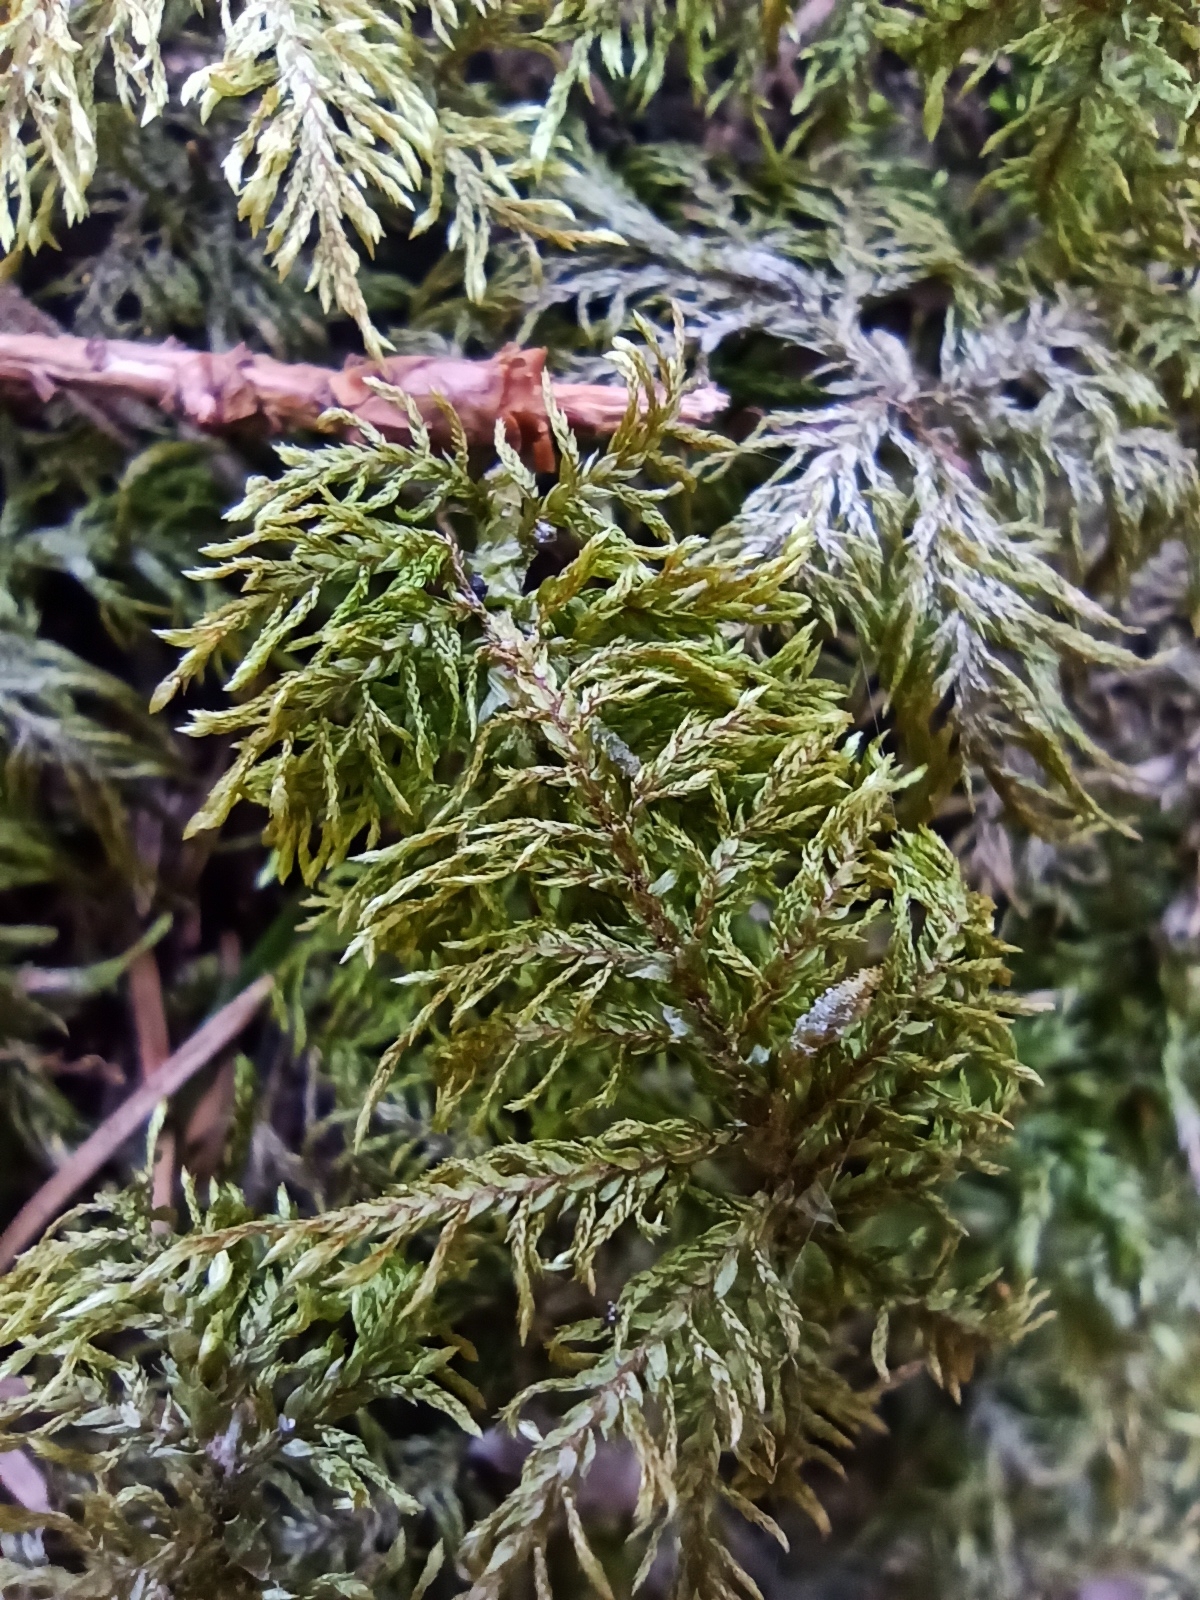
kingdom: Plantae
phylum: Bryophyta
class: Bryopsida
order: Hypnales
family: Hylocomiaceae
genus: Hylocomium
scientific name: Hylocomium splendens
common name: Stairstep moss
